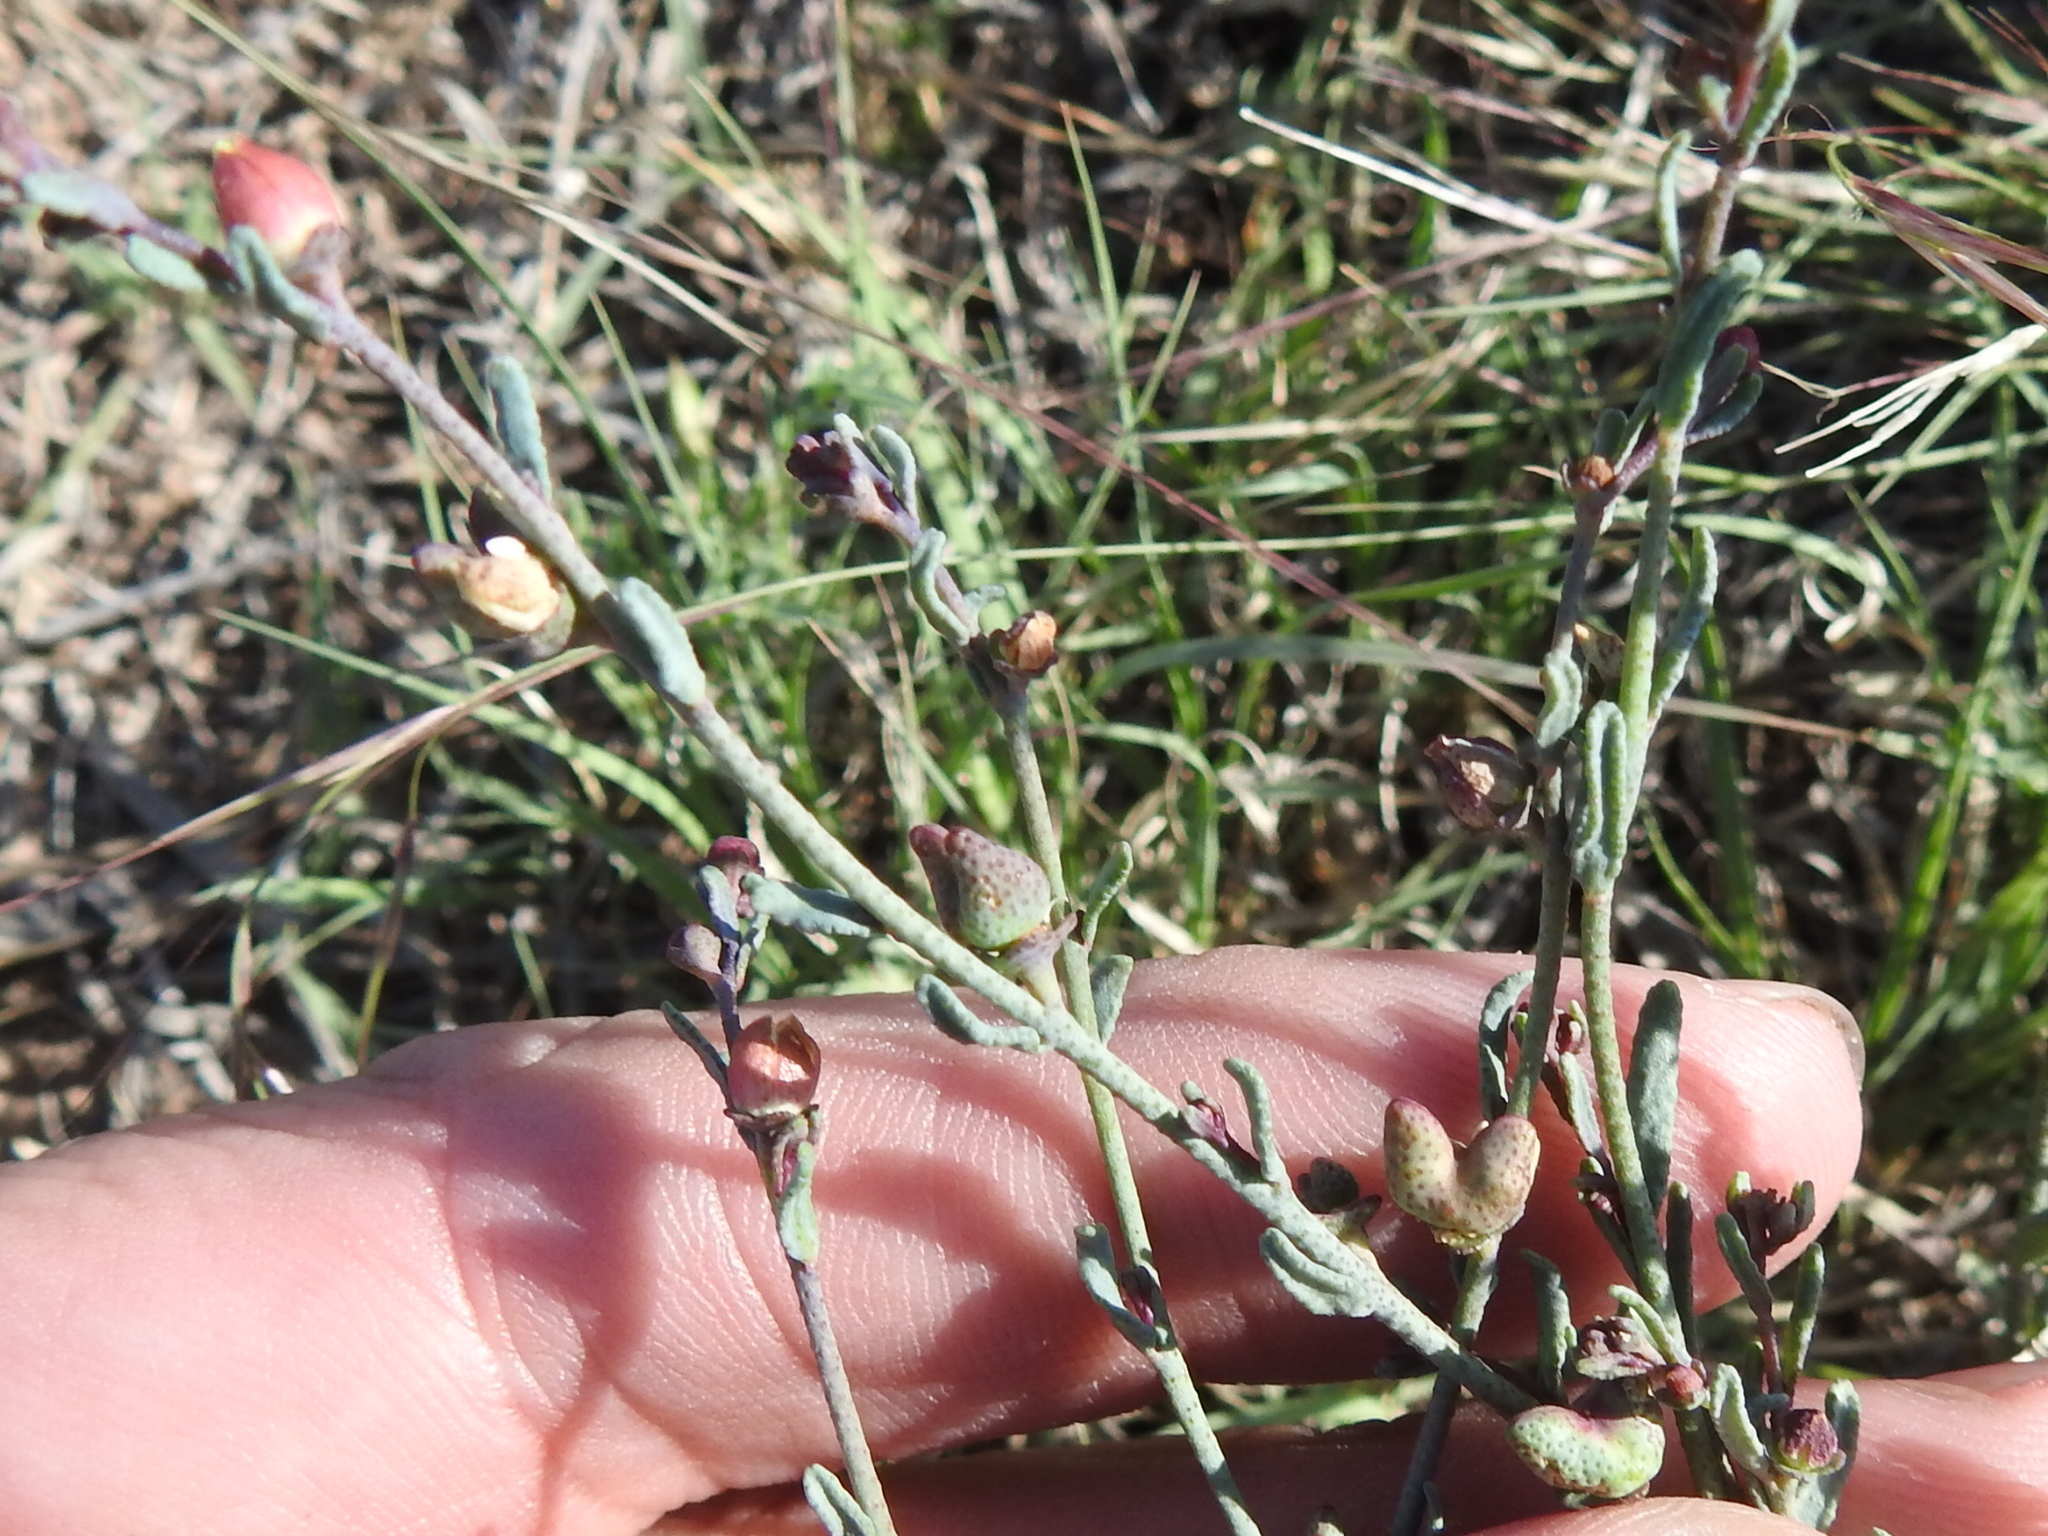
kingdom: Plantae
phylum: Tracheophyta
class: Magnoliopsida
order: Sapindales
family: Rutaceae
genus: Thamnosma
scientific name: Thamnosma texana
